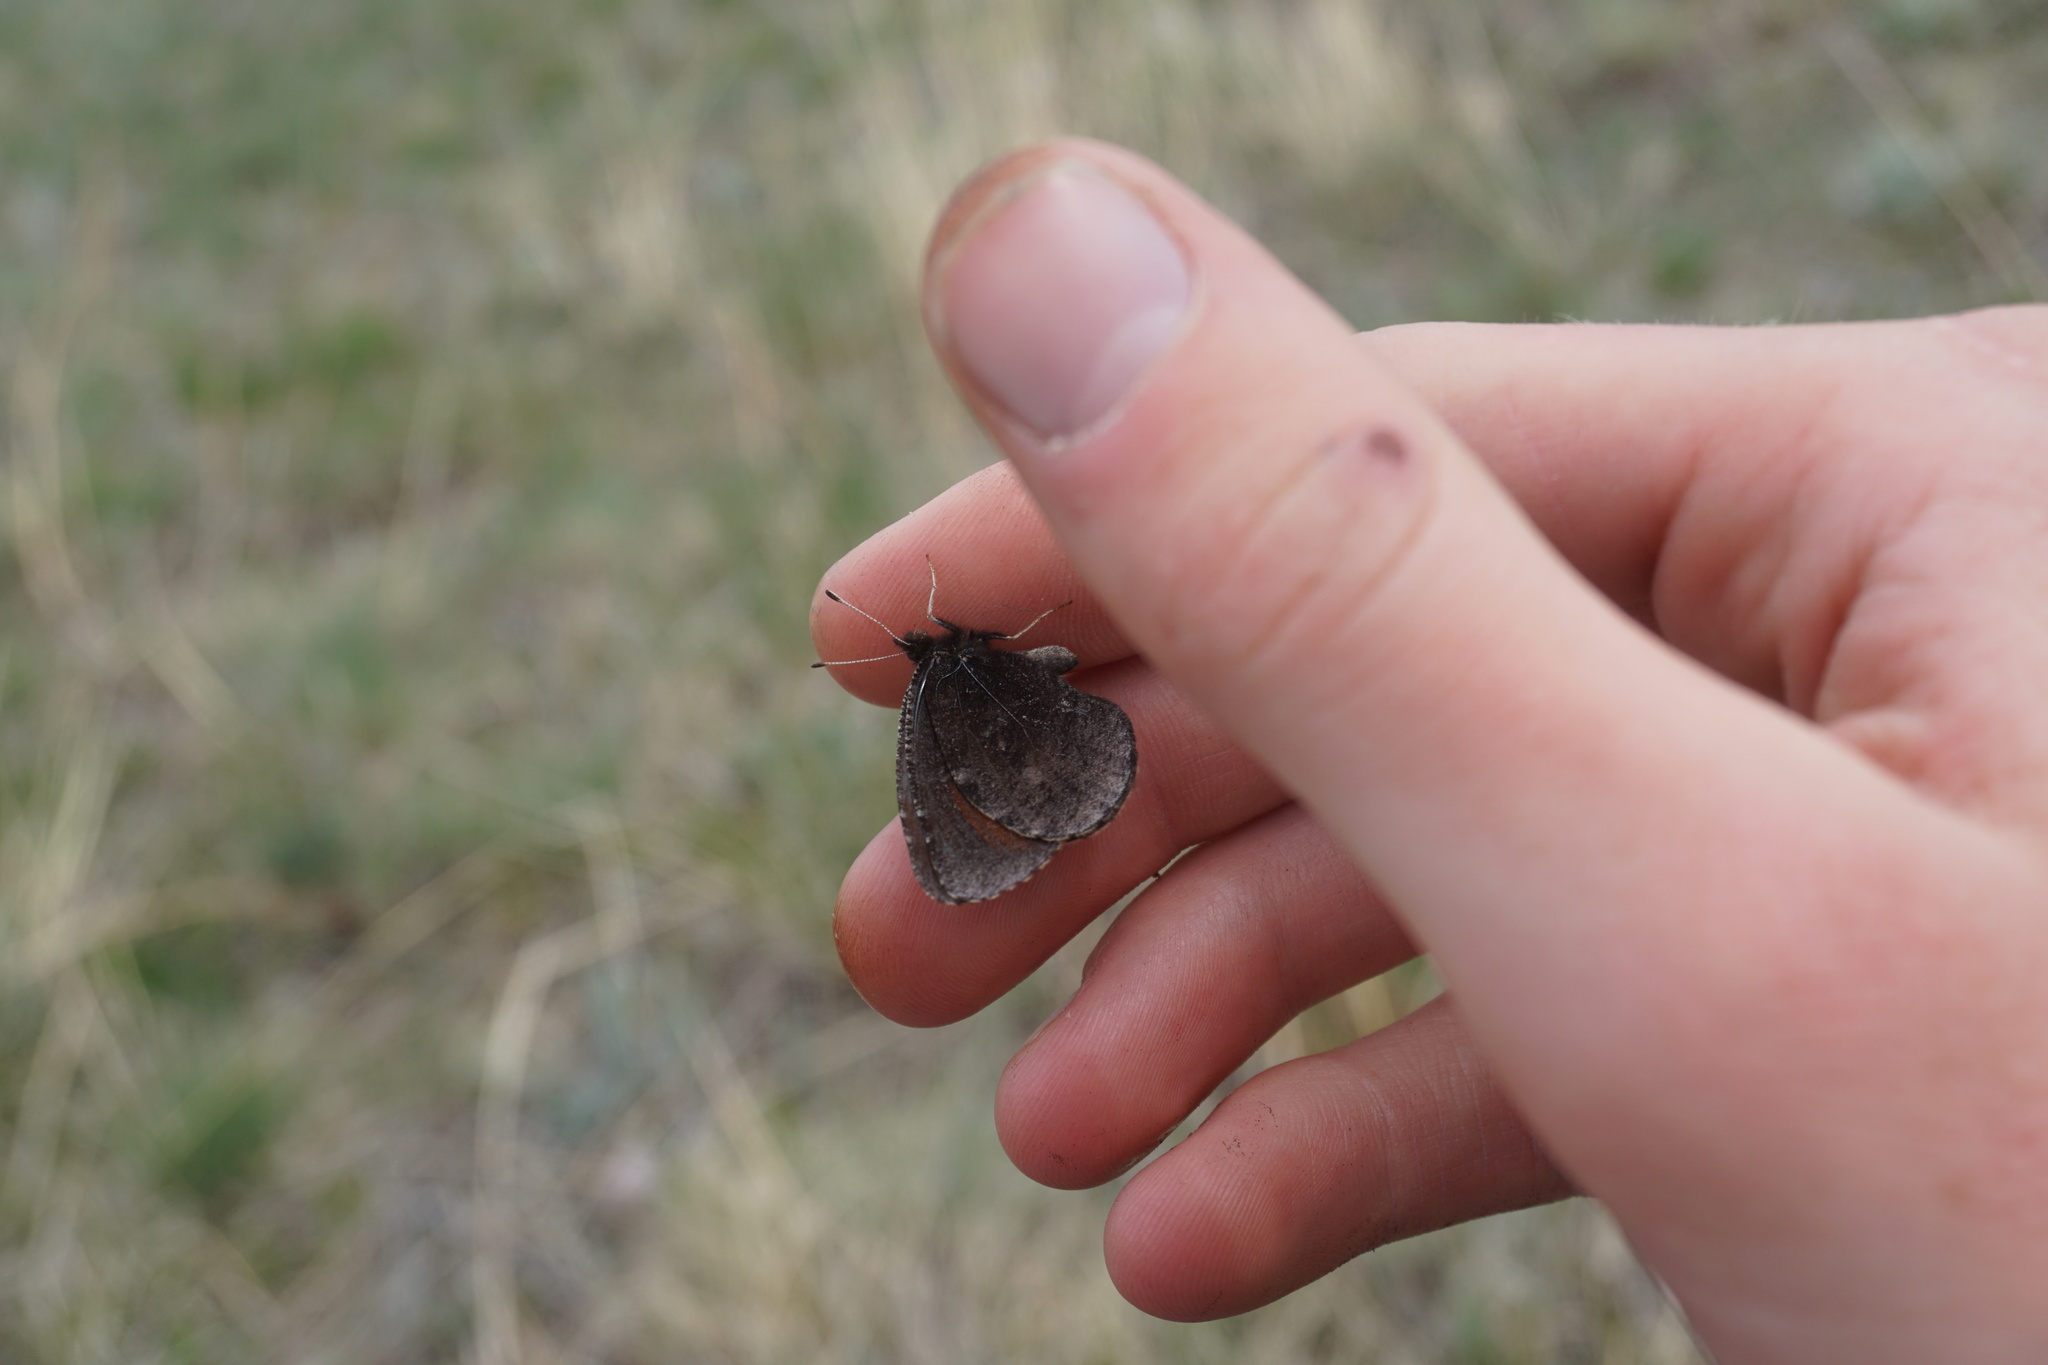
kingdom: Animalia
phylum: Arthropoda
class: Insecta
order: Lepidoptera
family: Nymphalidae
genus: Erebia
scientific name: Erebia discoidalis
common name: Red-disked alpine
